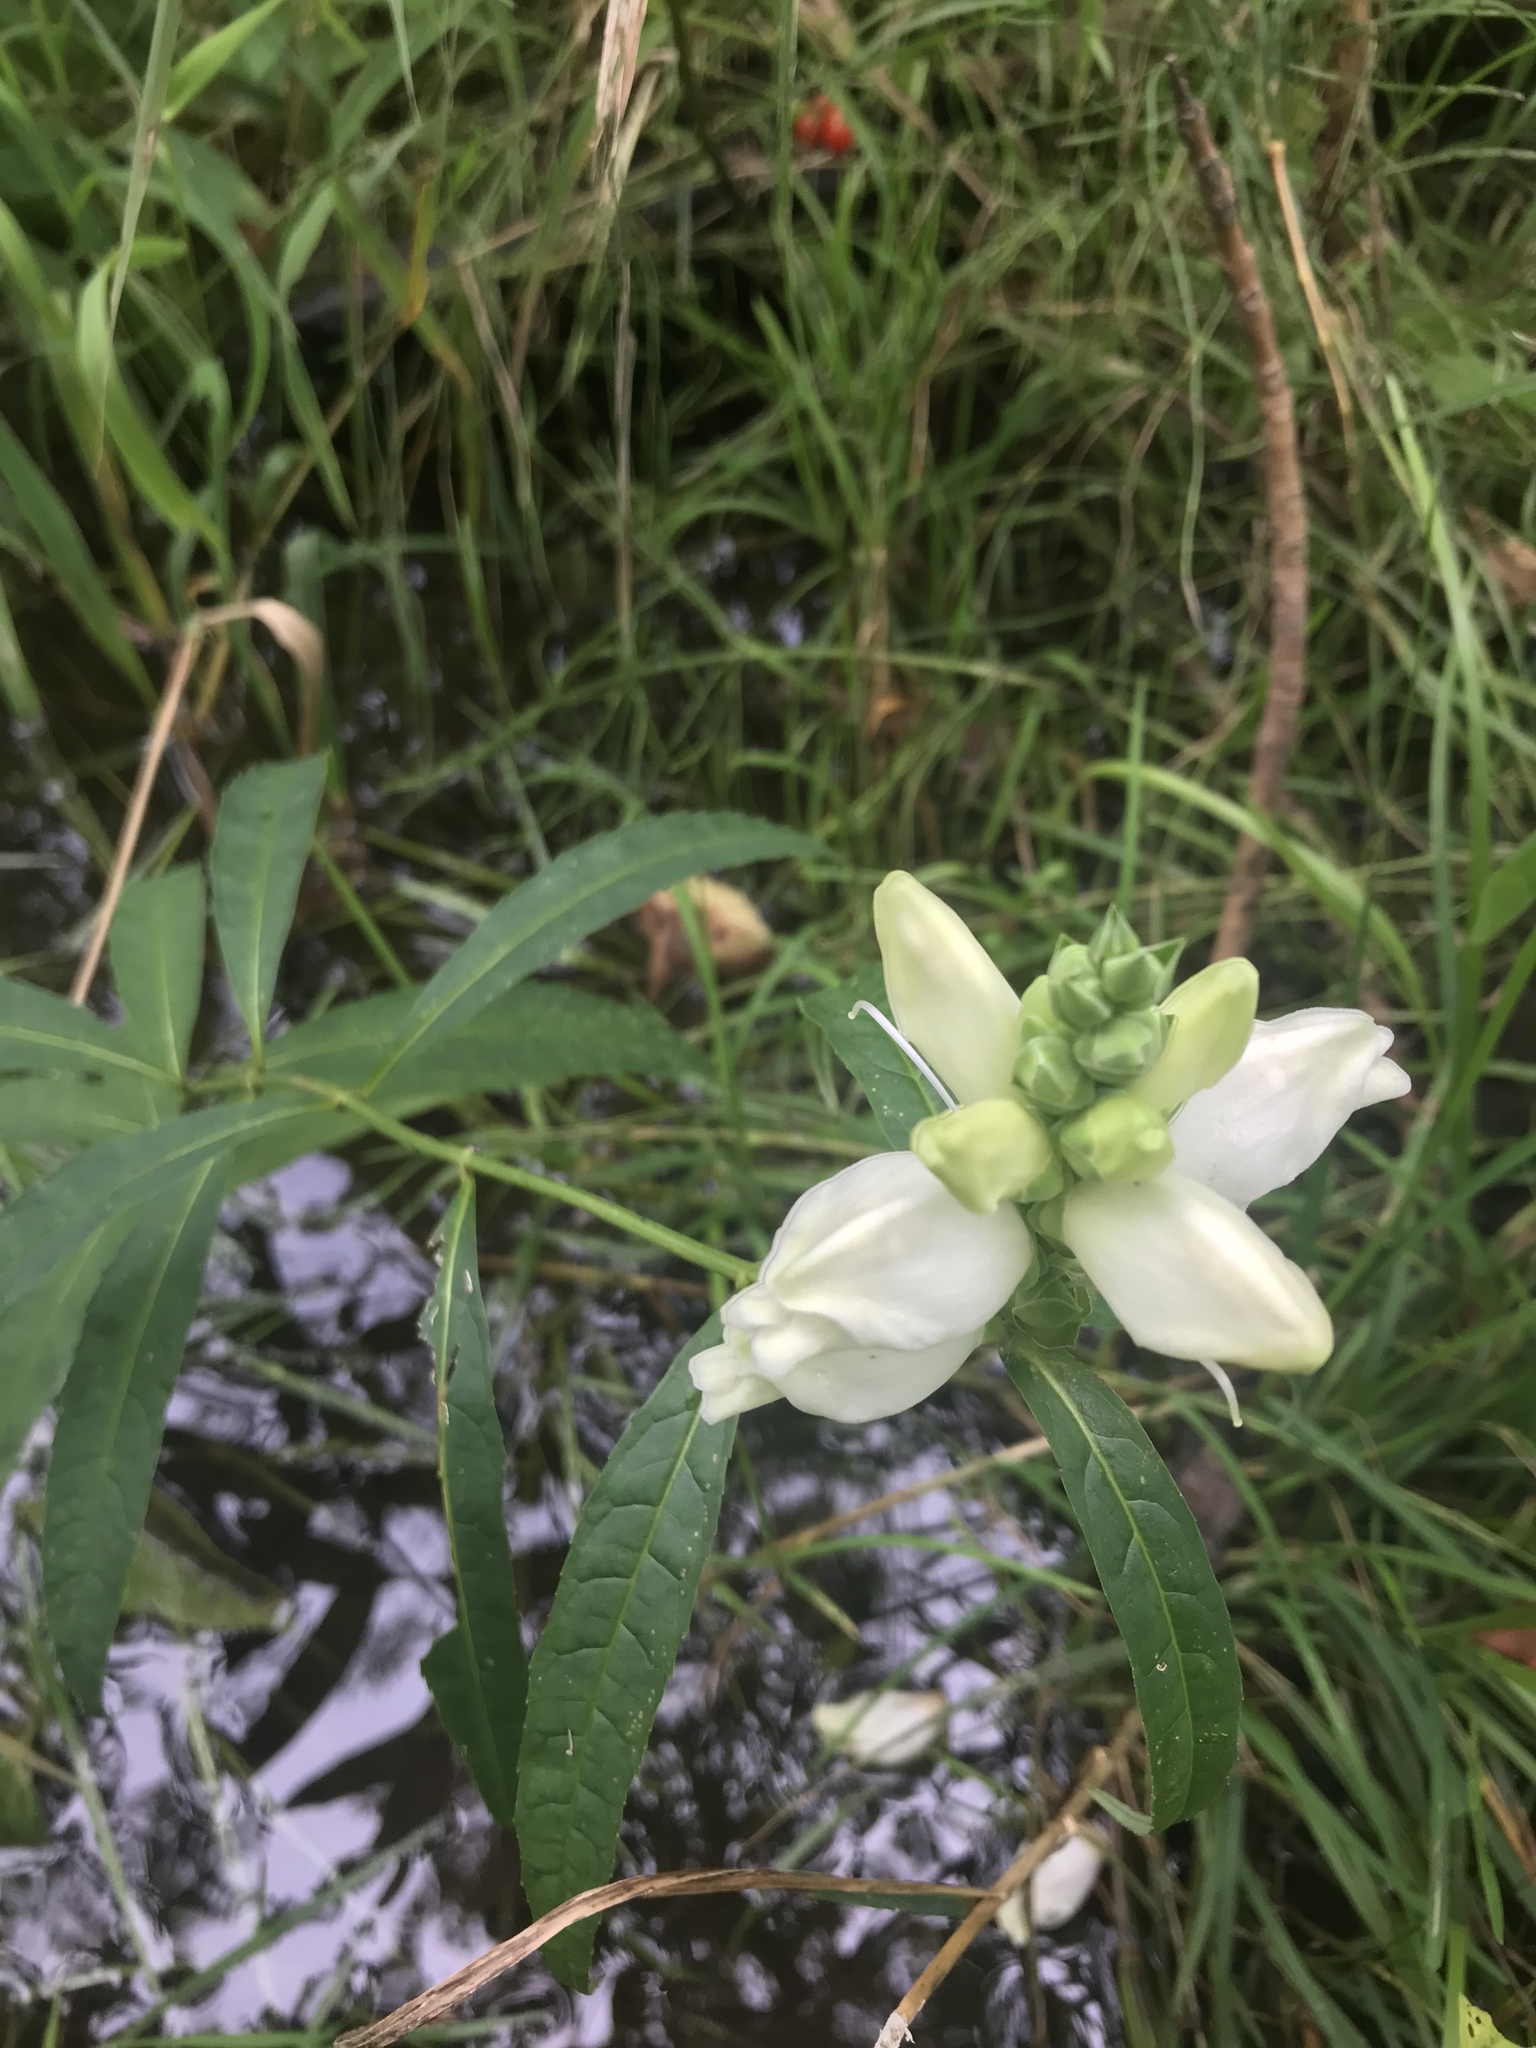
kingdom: Plantae
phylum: Tracheophyta
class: Magnoliopsida
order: Lamiales
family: Plantaginaceae
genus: Chelone
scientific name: Chelone glabra
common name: Snakehead
